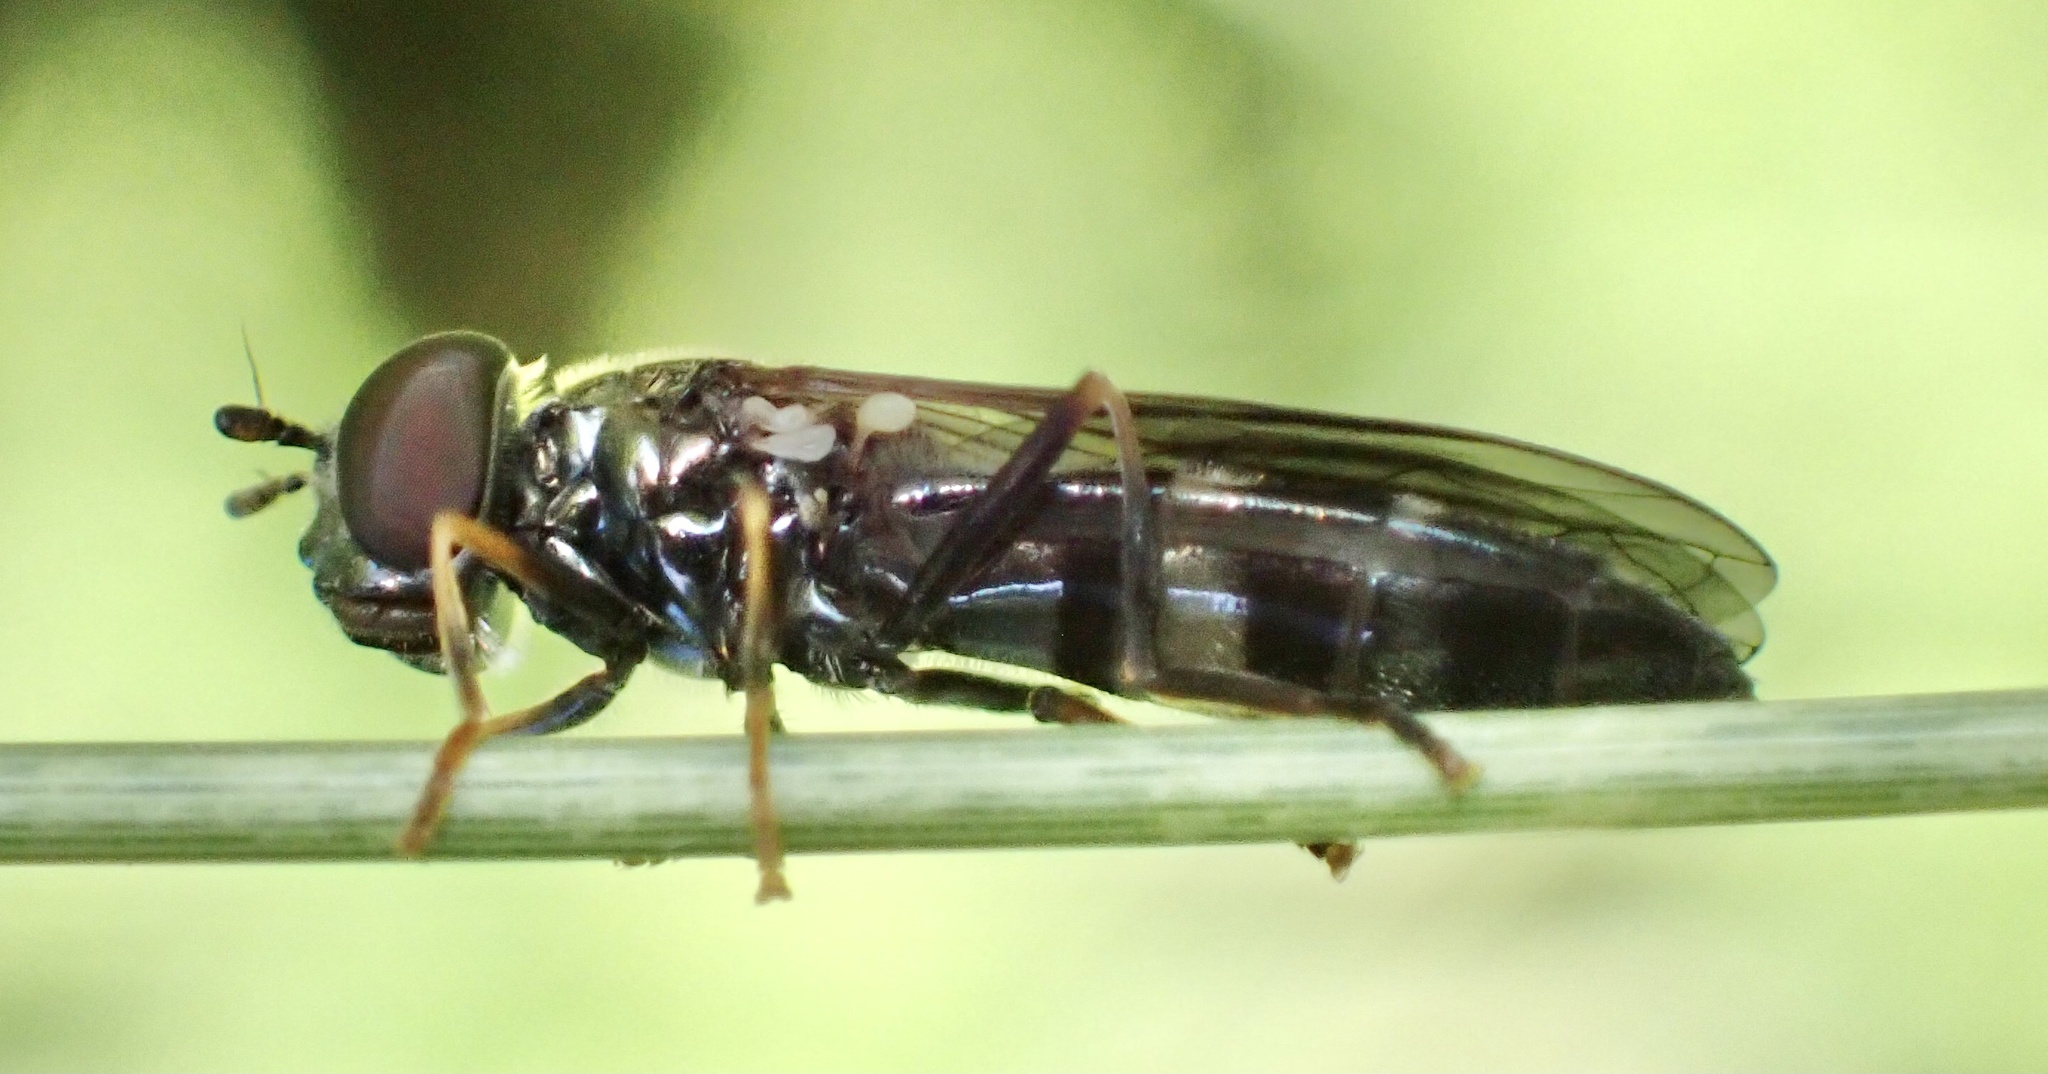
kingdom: Animalia
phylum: Arthropoda
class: Insecta
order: Diptera
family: Syrphidae
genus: Pyrophaena
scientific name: Pyrophaena rosarum
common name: Fourspot sedgesitter
